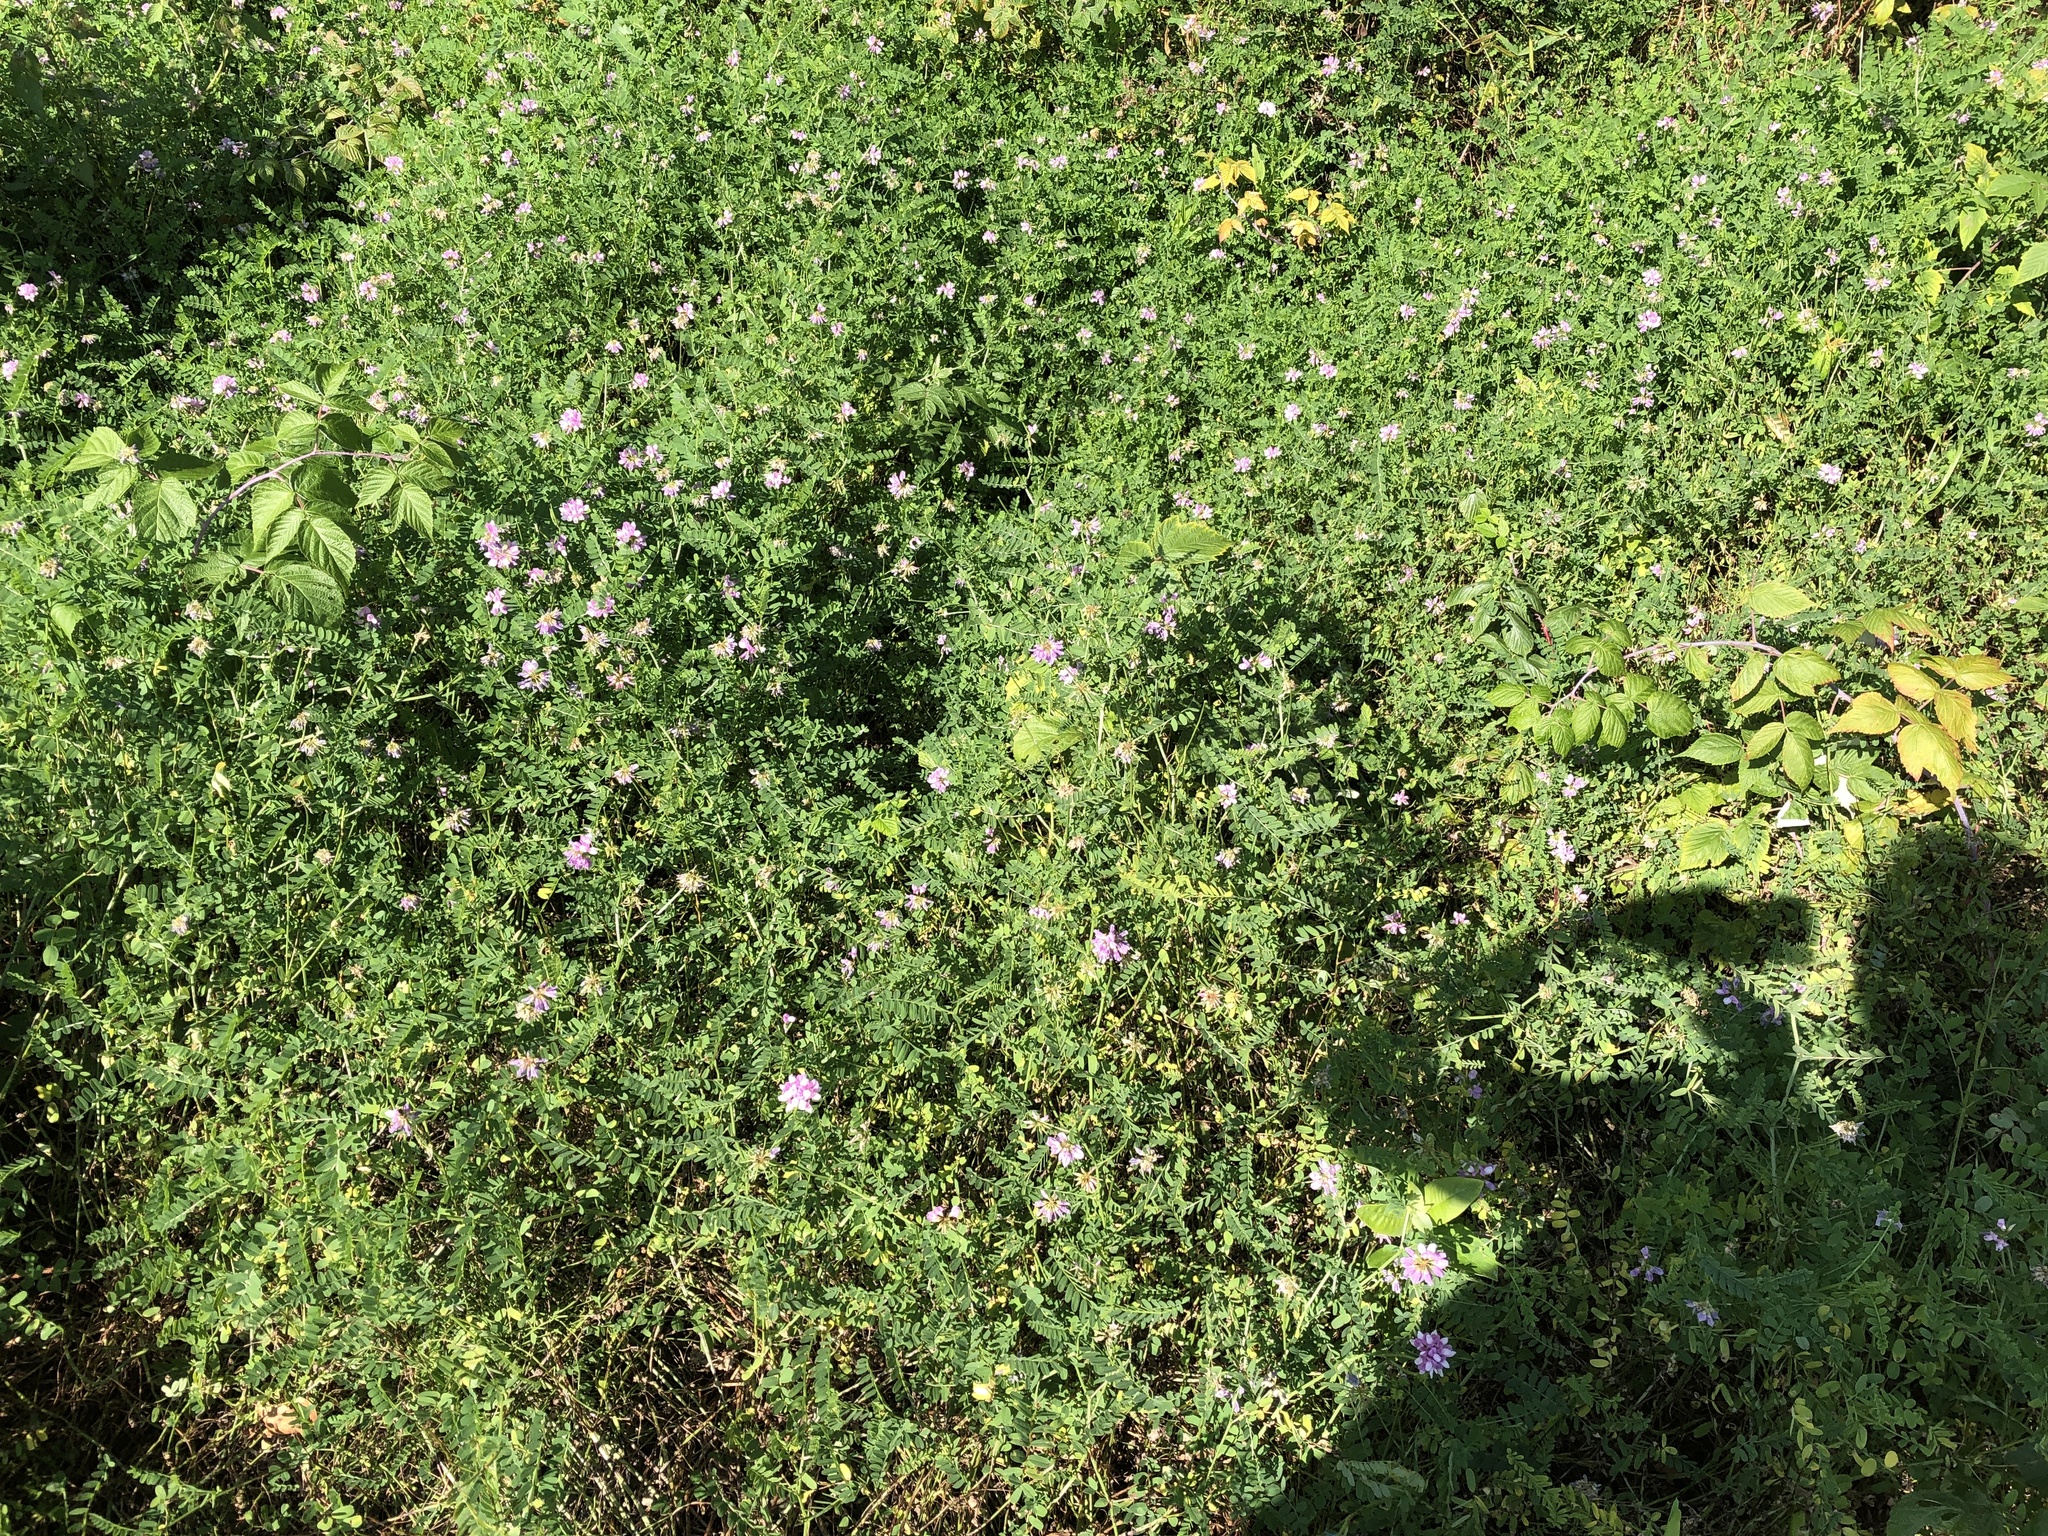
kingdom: Plantae
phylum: Tracheophyta
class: Magnoliopsida
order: Fabales
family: Fabaceae
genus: Coronilla
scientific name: Coronilla varia
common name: Crownvetch
